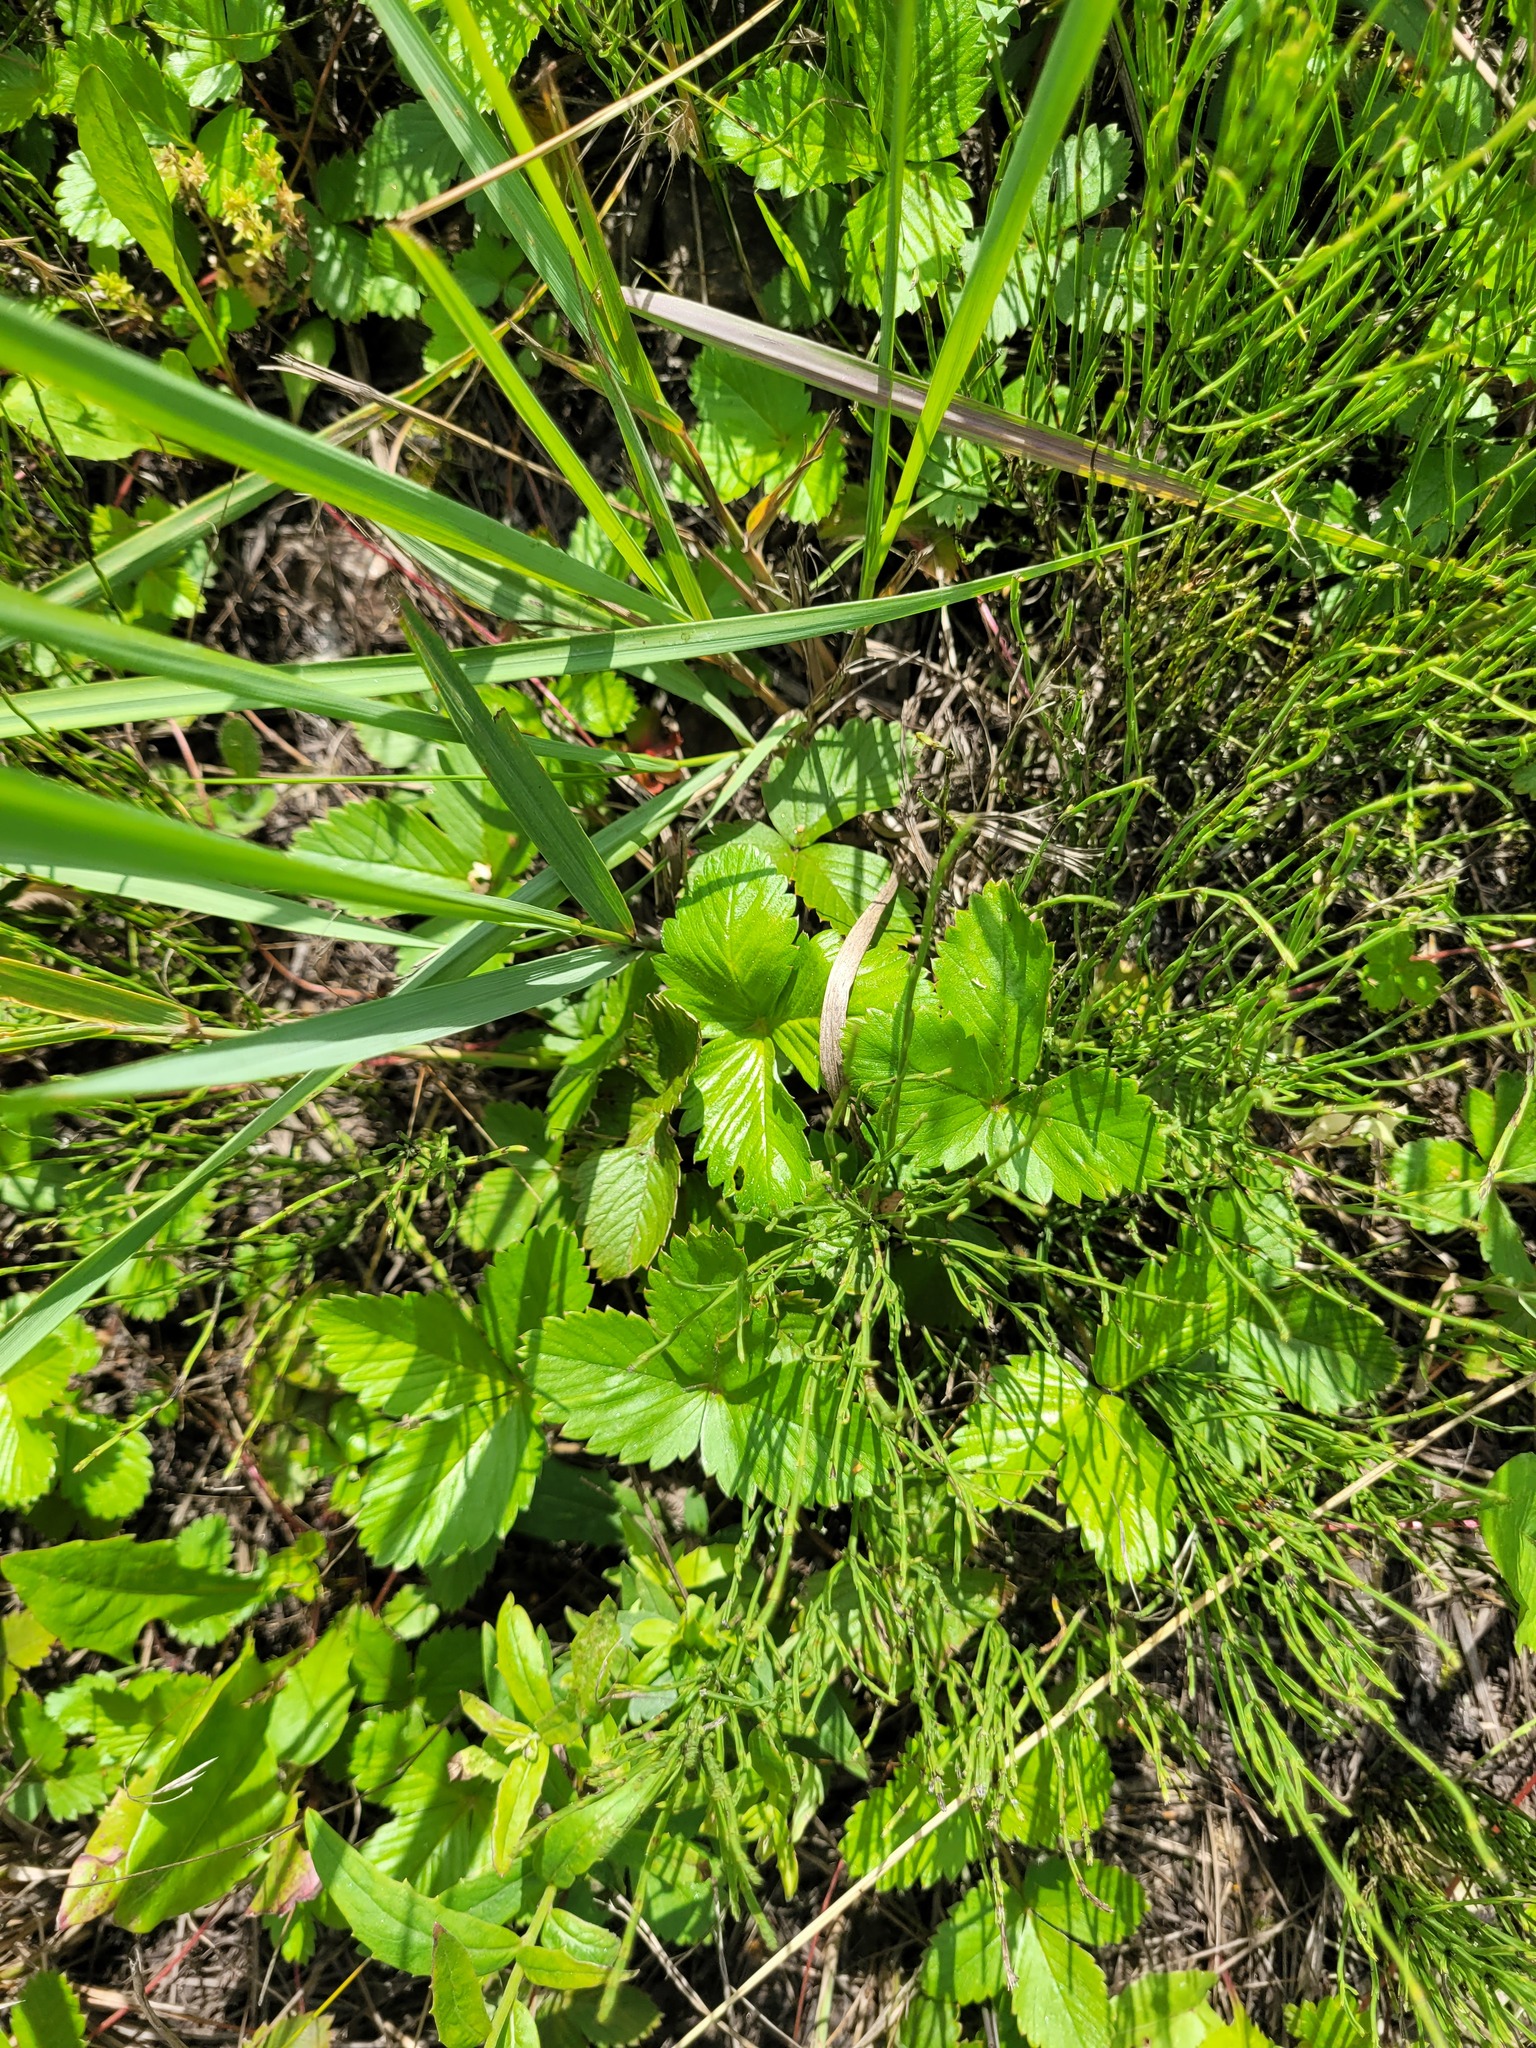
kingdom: Plantae
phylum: Tracheophyta
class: Magnoliopsida
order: Rosales
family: Rosaceae
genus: Fragaria
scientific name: Fragaria vesca
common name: Wild strawberry
